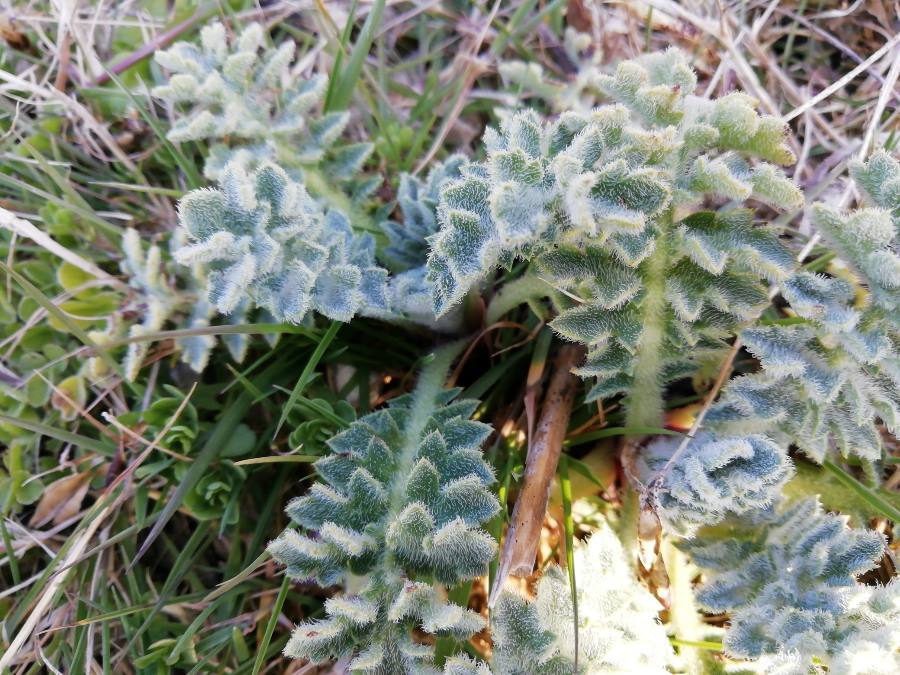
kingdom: Plantae
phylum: Tracheophyta
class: Magnoliopsida
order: Ranunculales
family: Papaveraceae
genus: Glaucium
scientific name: Glaucium flavum
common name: Yellow horned-poppy
